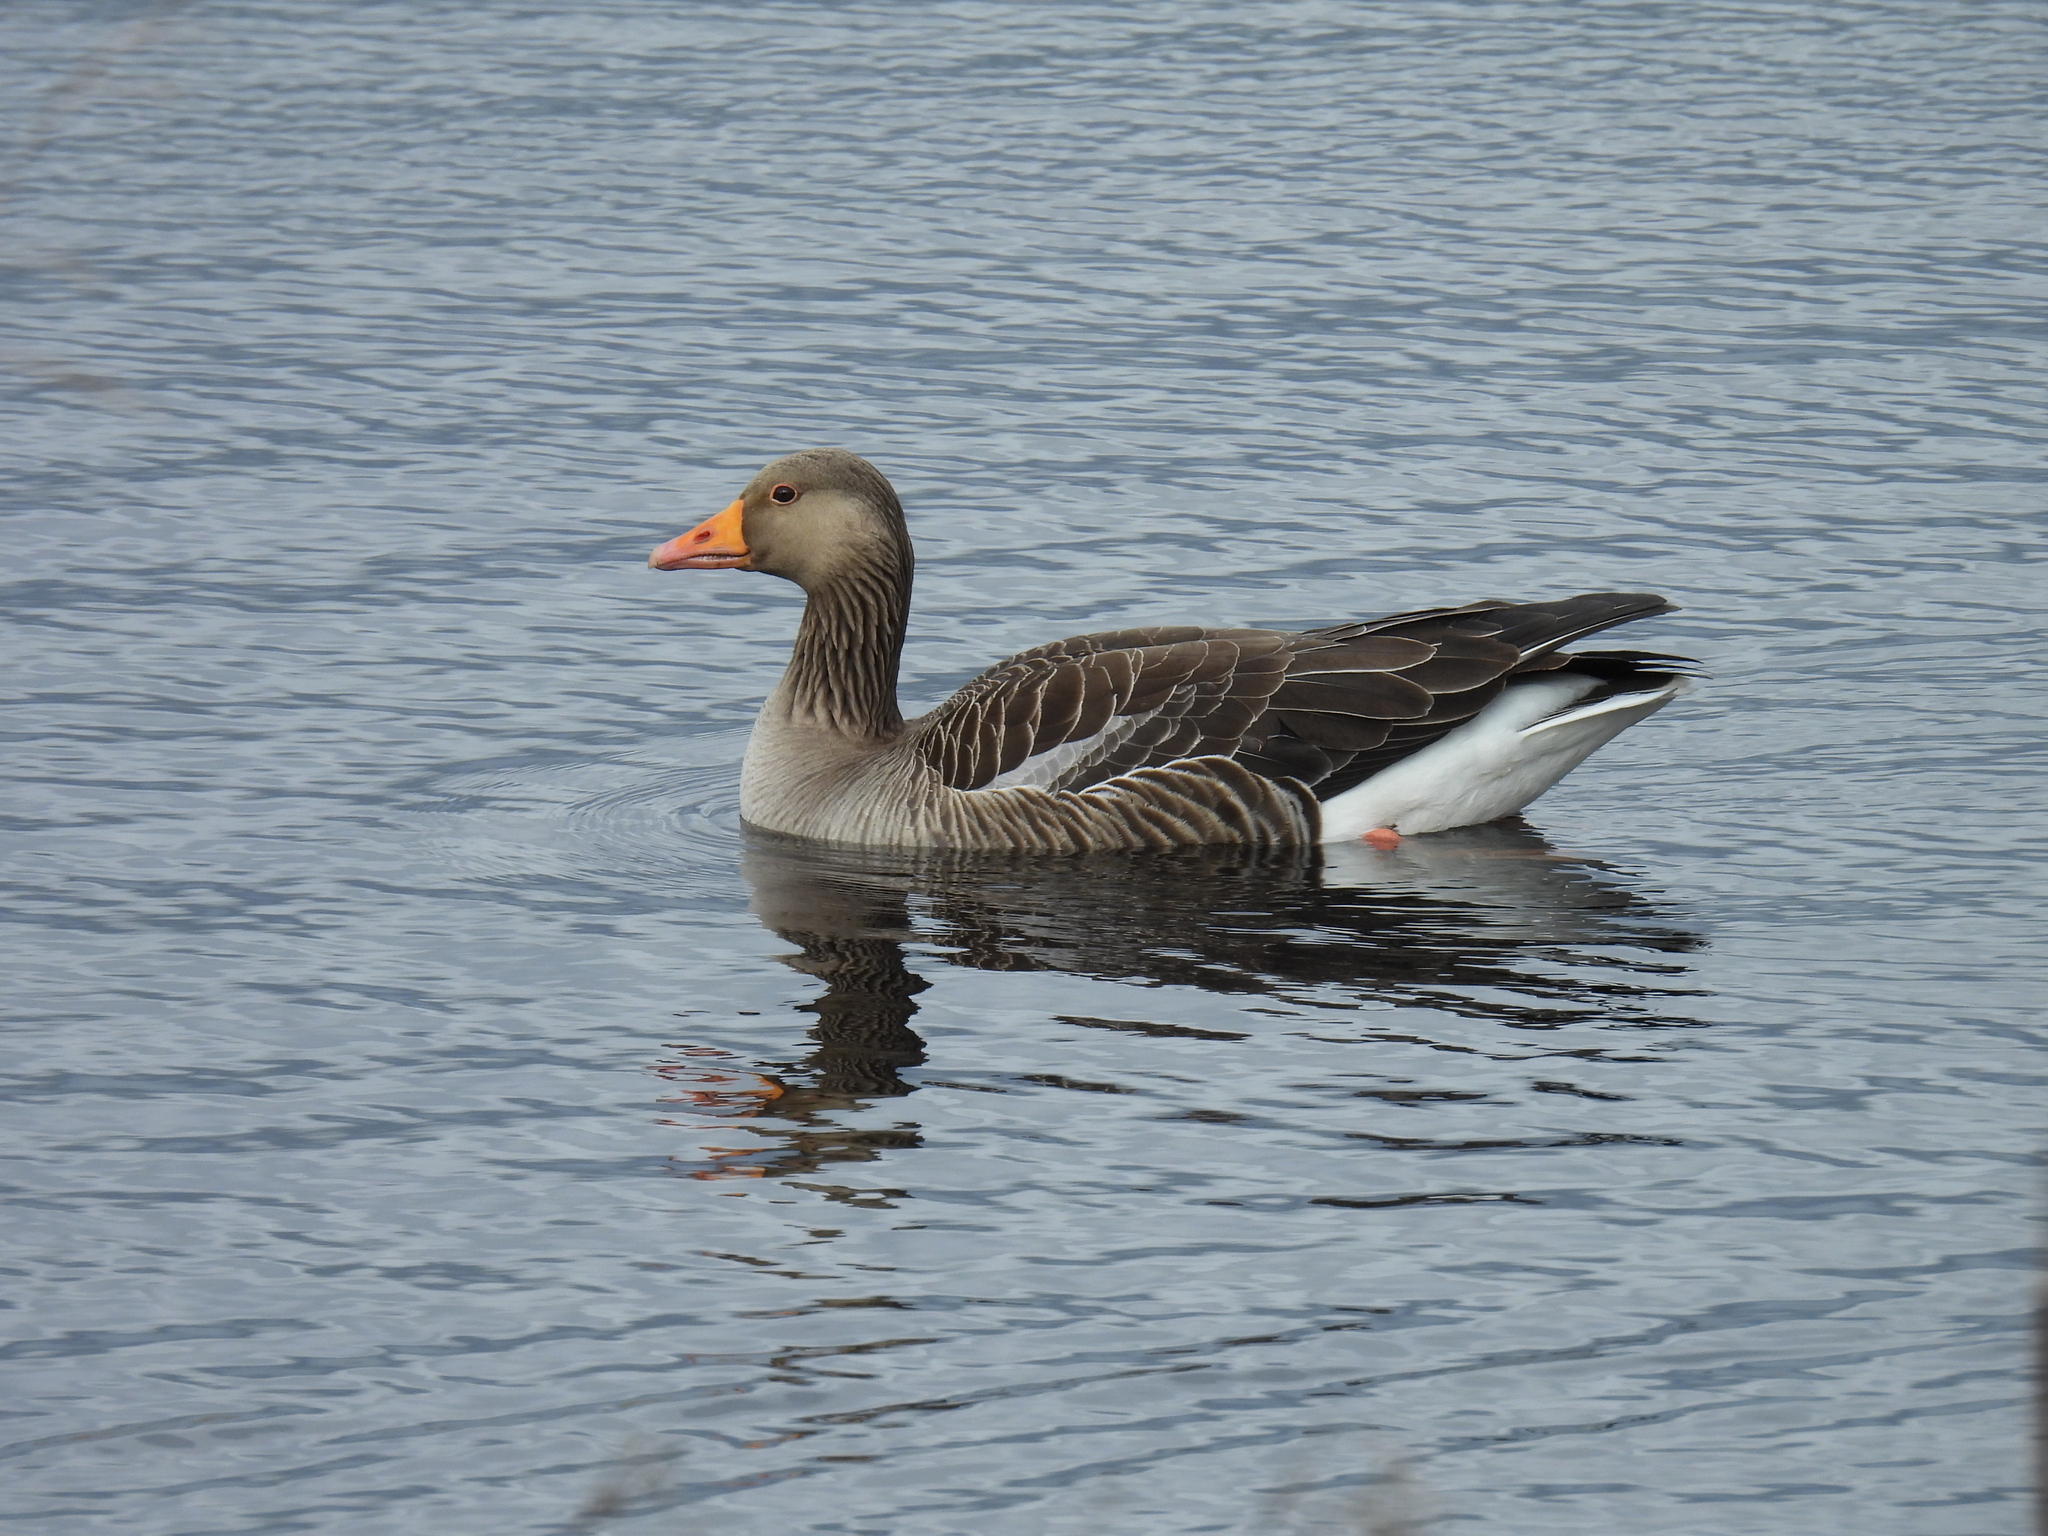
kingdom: Animalia
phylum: Chordata
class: Aves
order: Anseriformes
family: Anatidae
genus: Anser
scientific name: Anser anser
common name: Greylag goose
